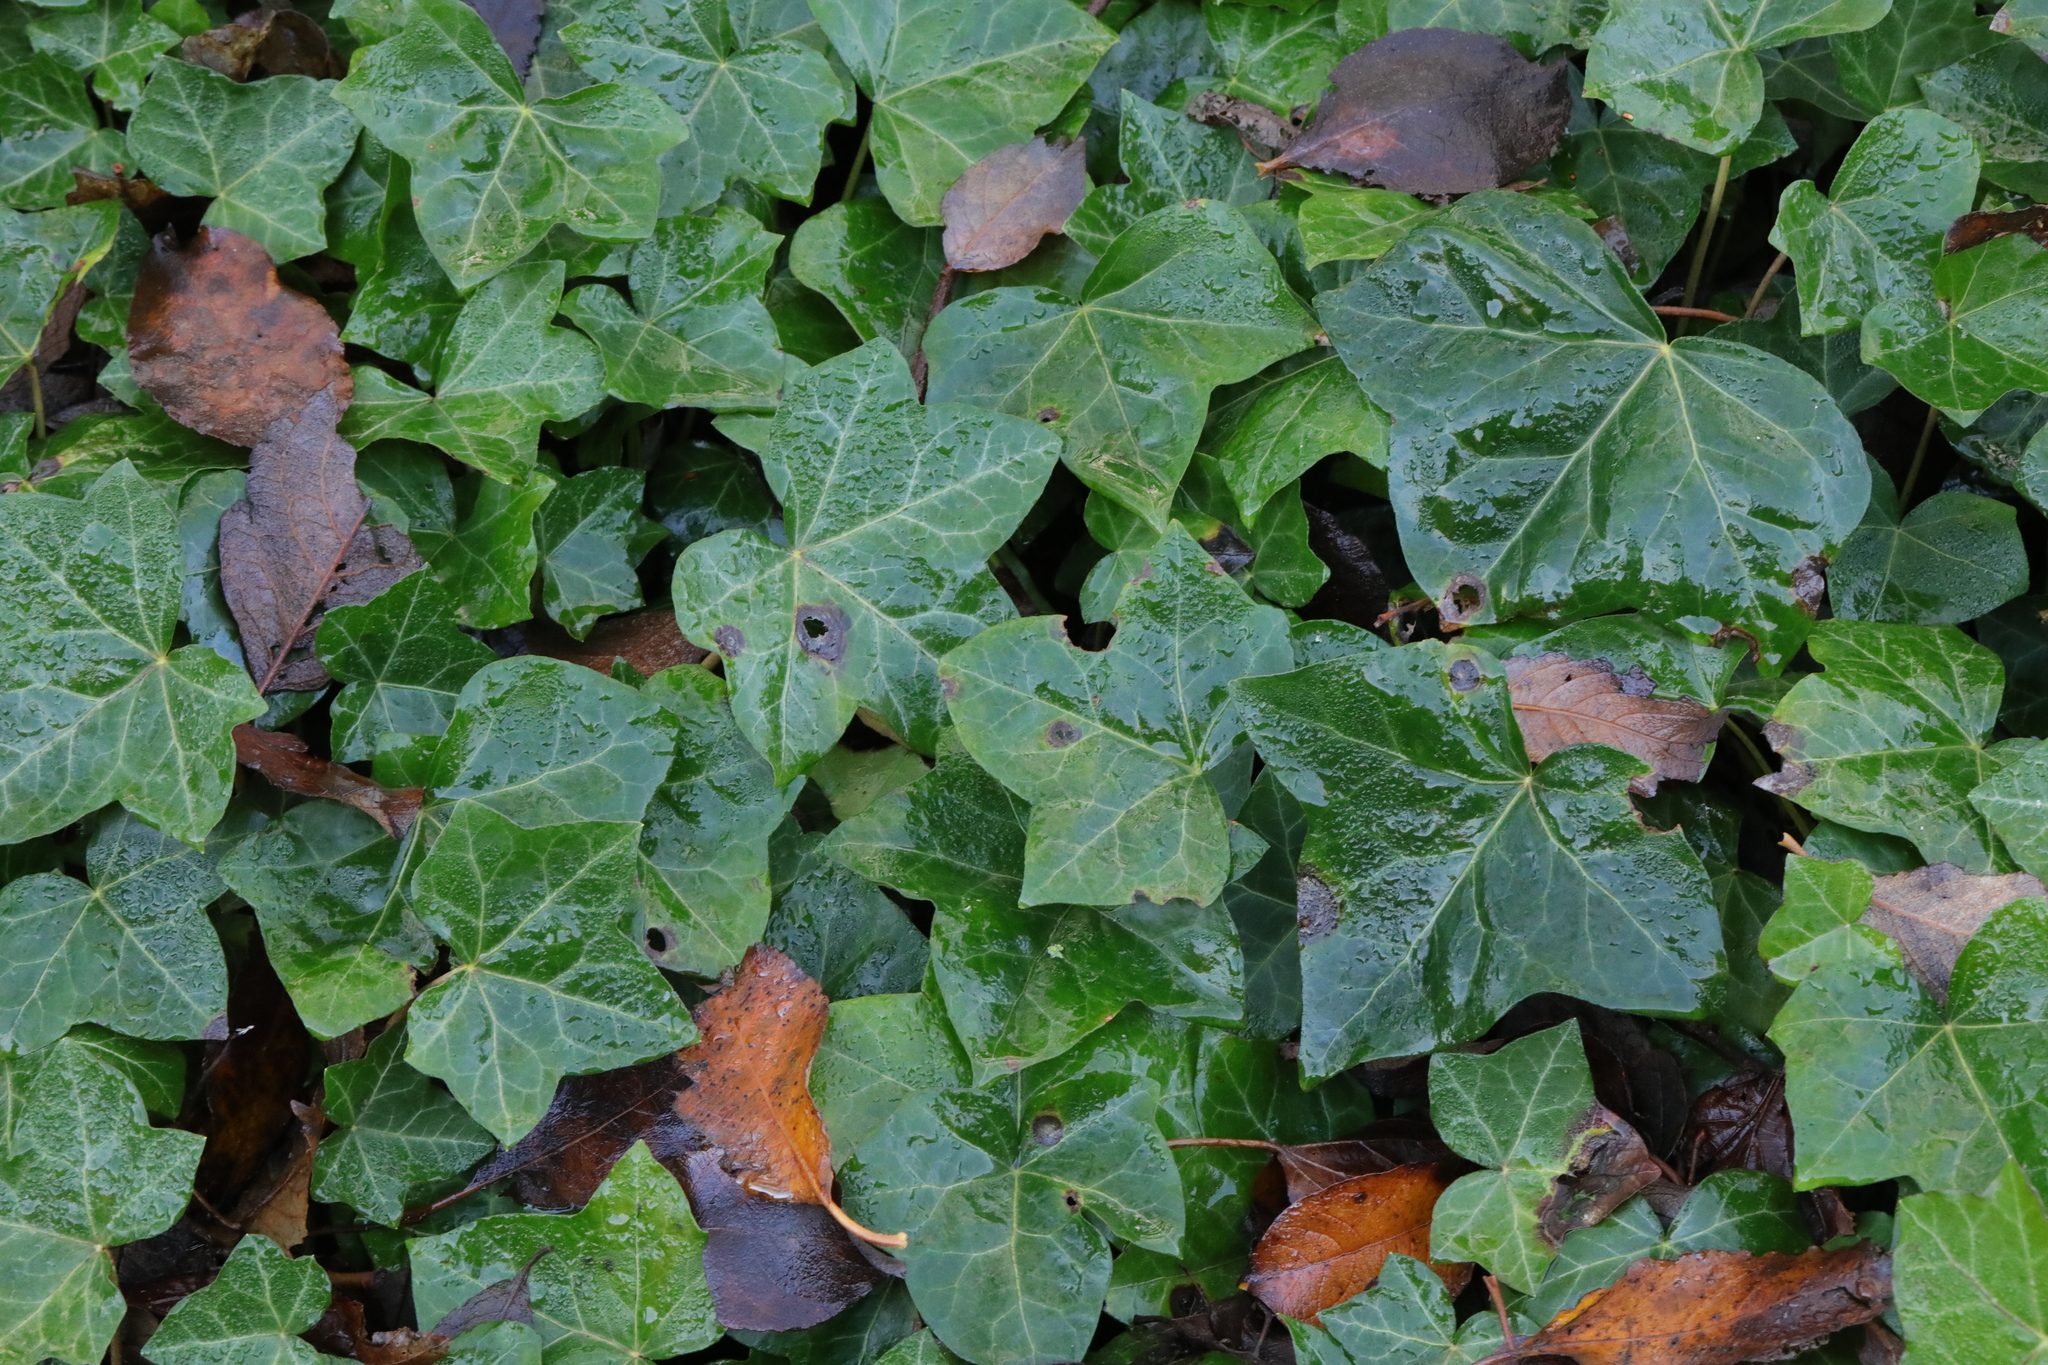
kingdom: Plantae
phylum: Tracheophyta
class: Magnoliopsida
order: Apiales
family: Araliaceae
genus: Hedera
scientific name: Hedera helix
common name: Ivy
